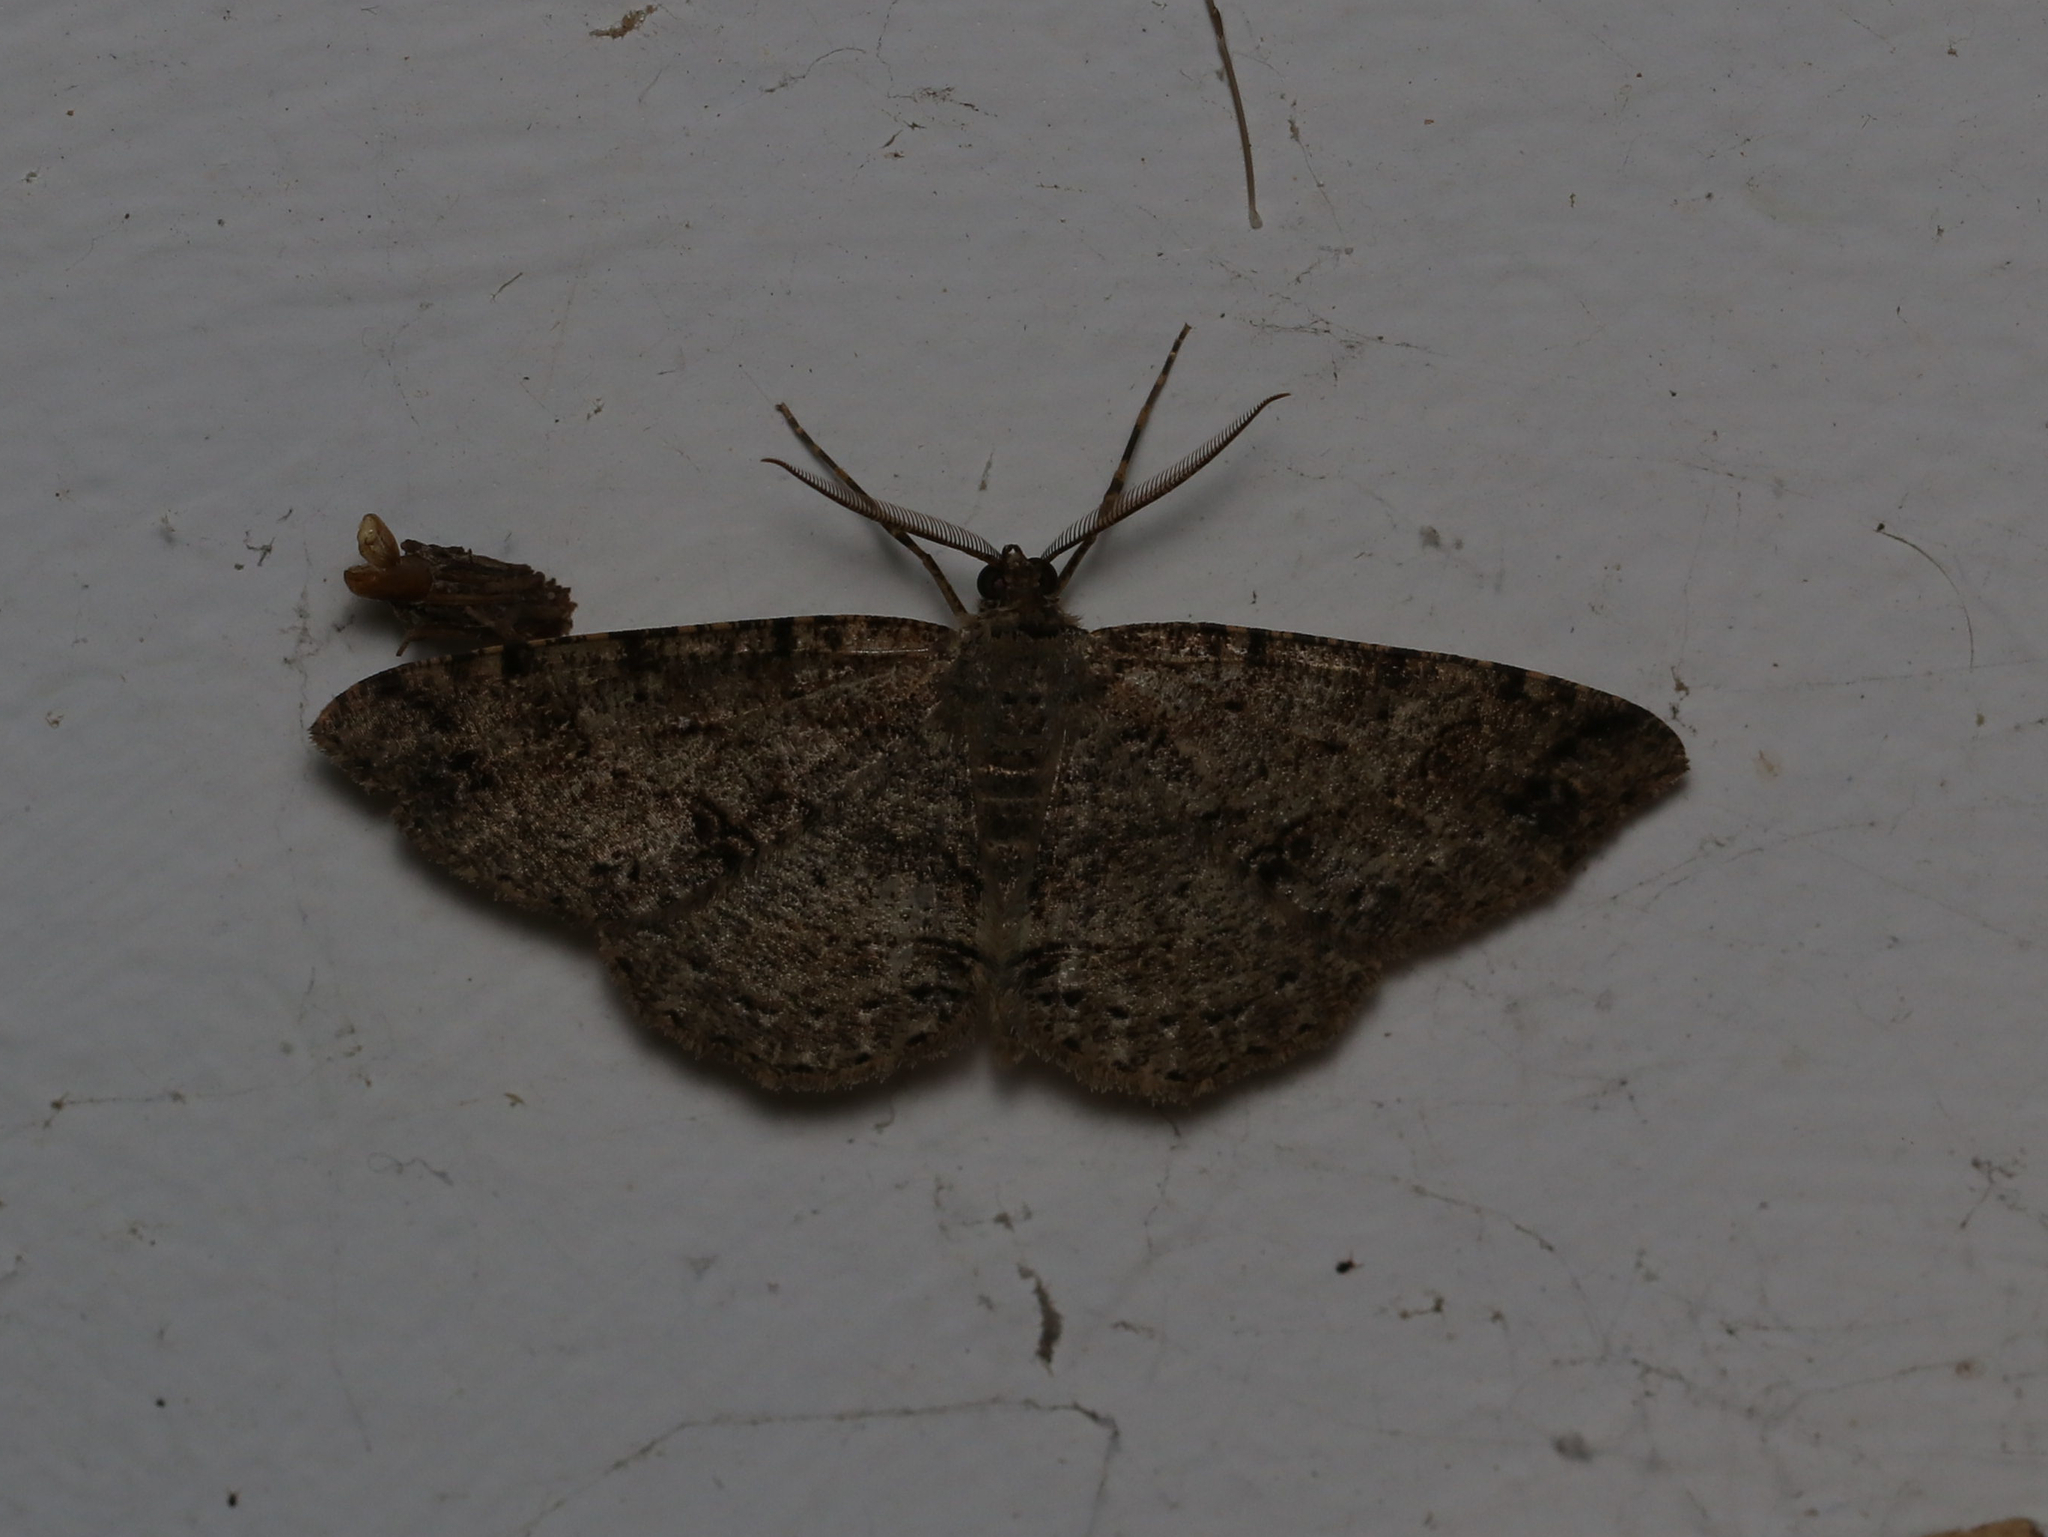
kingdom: Animalia
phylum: Arthropoda
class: Insecta
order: Lepidoptera
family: Geometridae
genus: Melanolophia
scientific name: Melanolophia canadaria
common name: Canadian melanolophia
